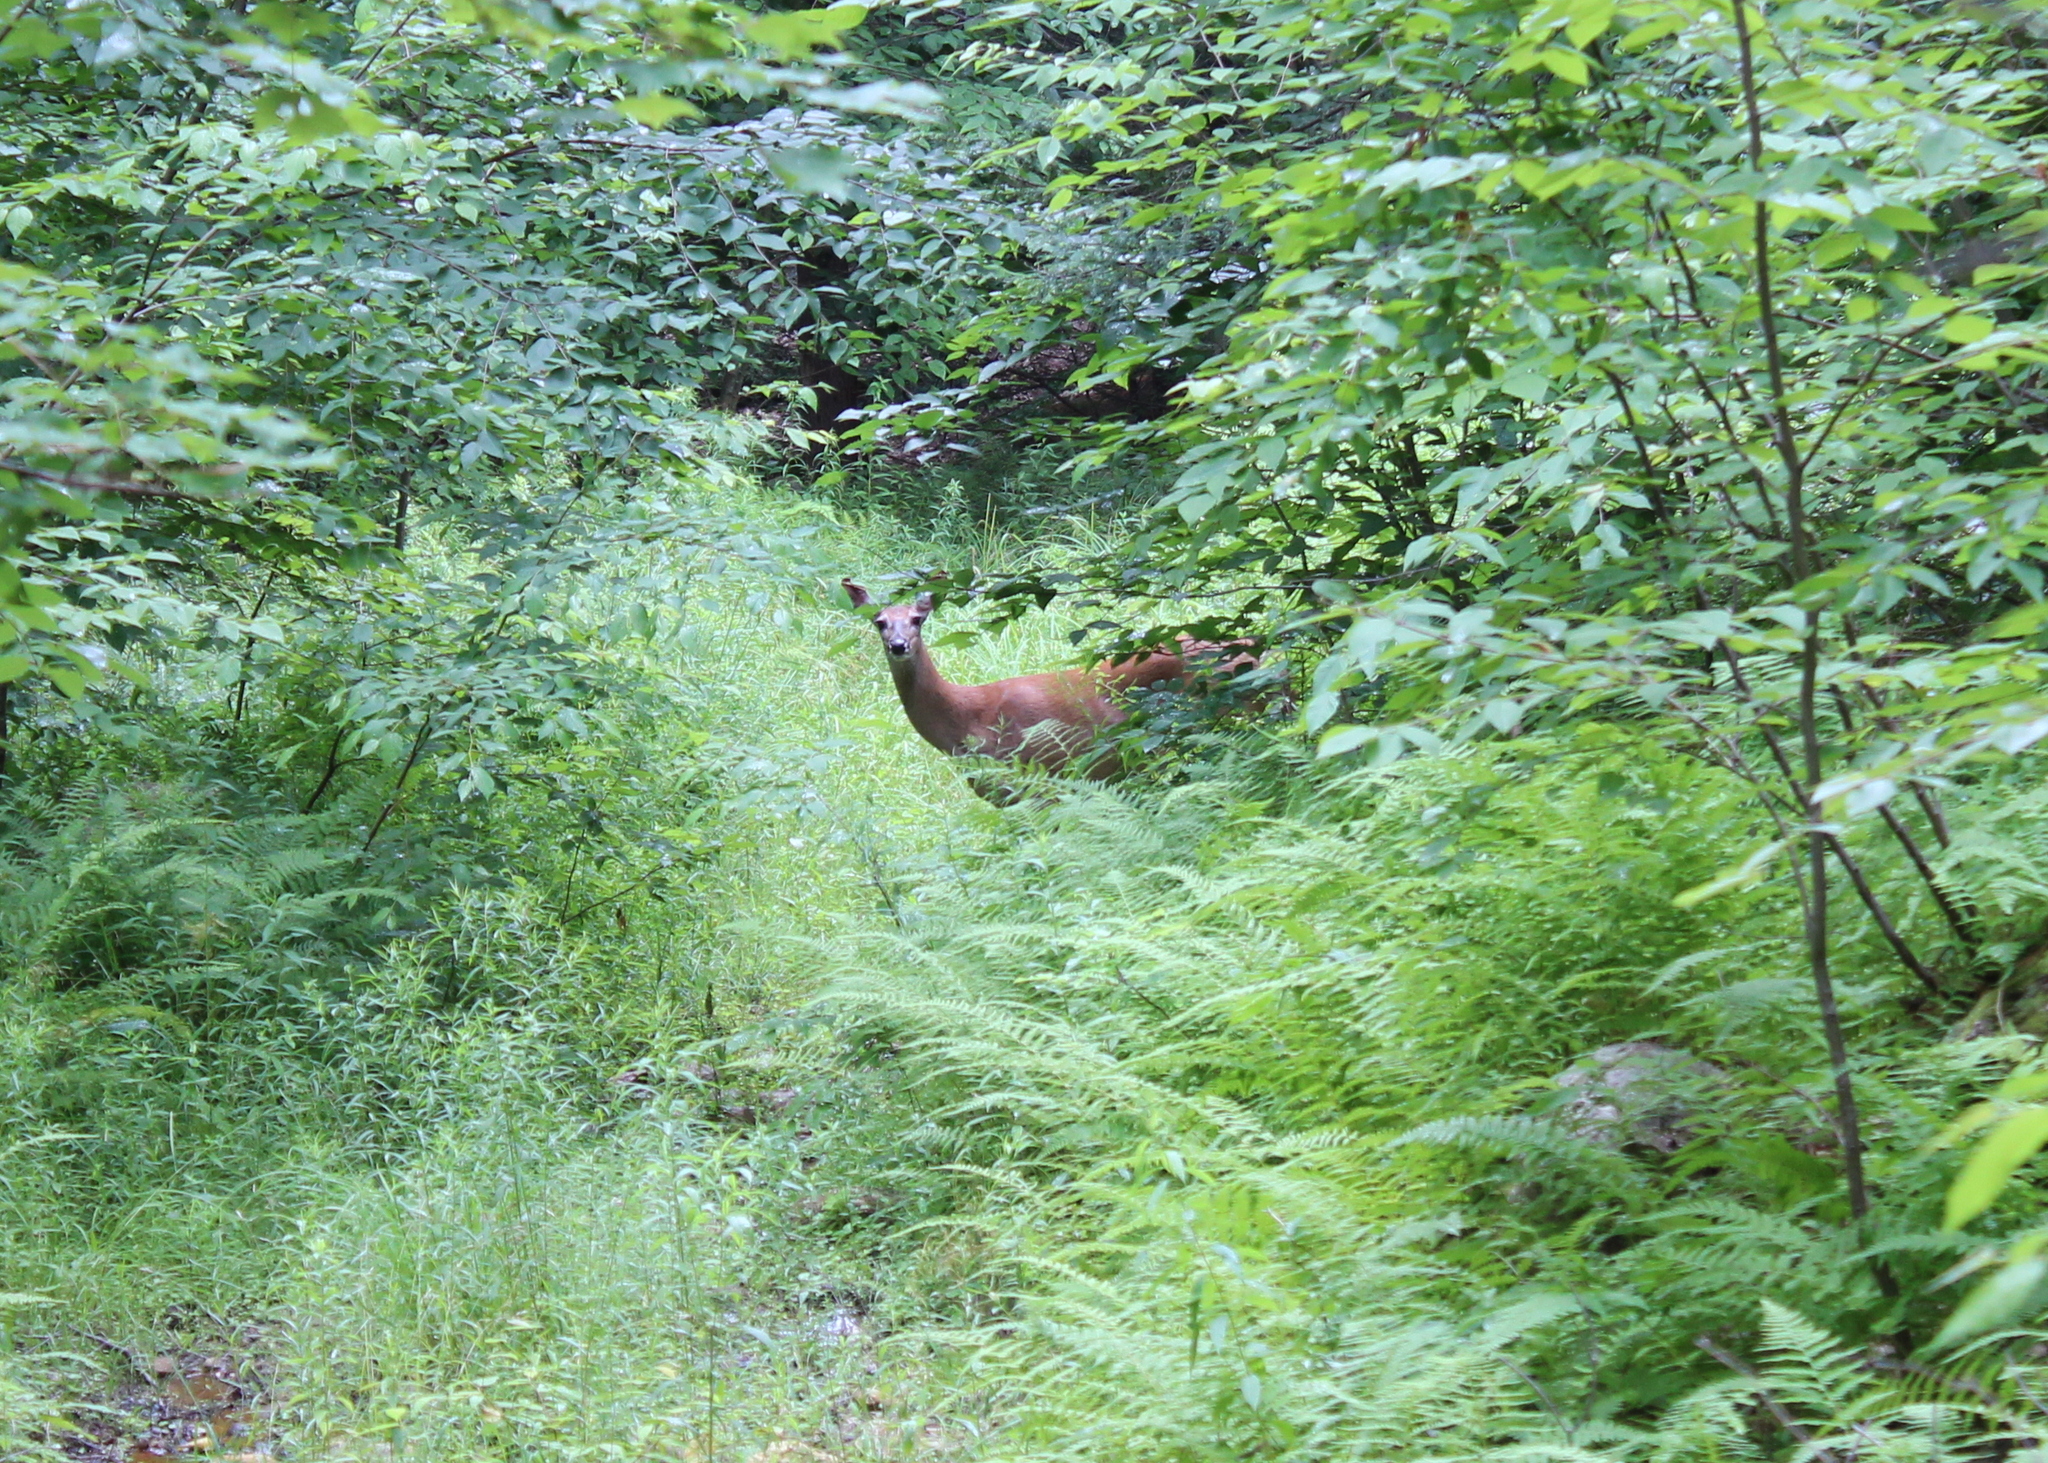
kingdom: Animalia
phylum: Chordata
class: Mammalia
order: Artiodactyla
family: Cervidae
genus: Odocoileus
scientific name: Odocoileus virginianus
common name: White-tailed deer
